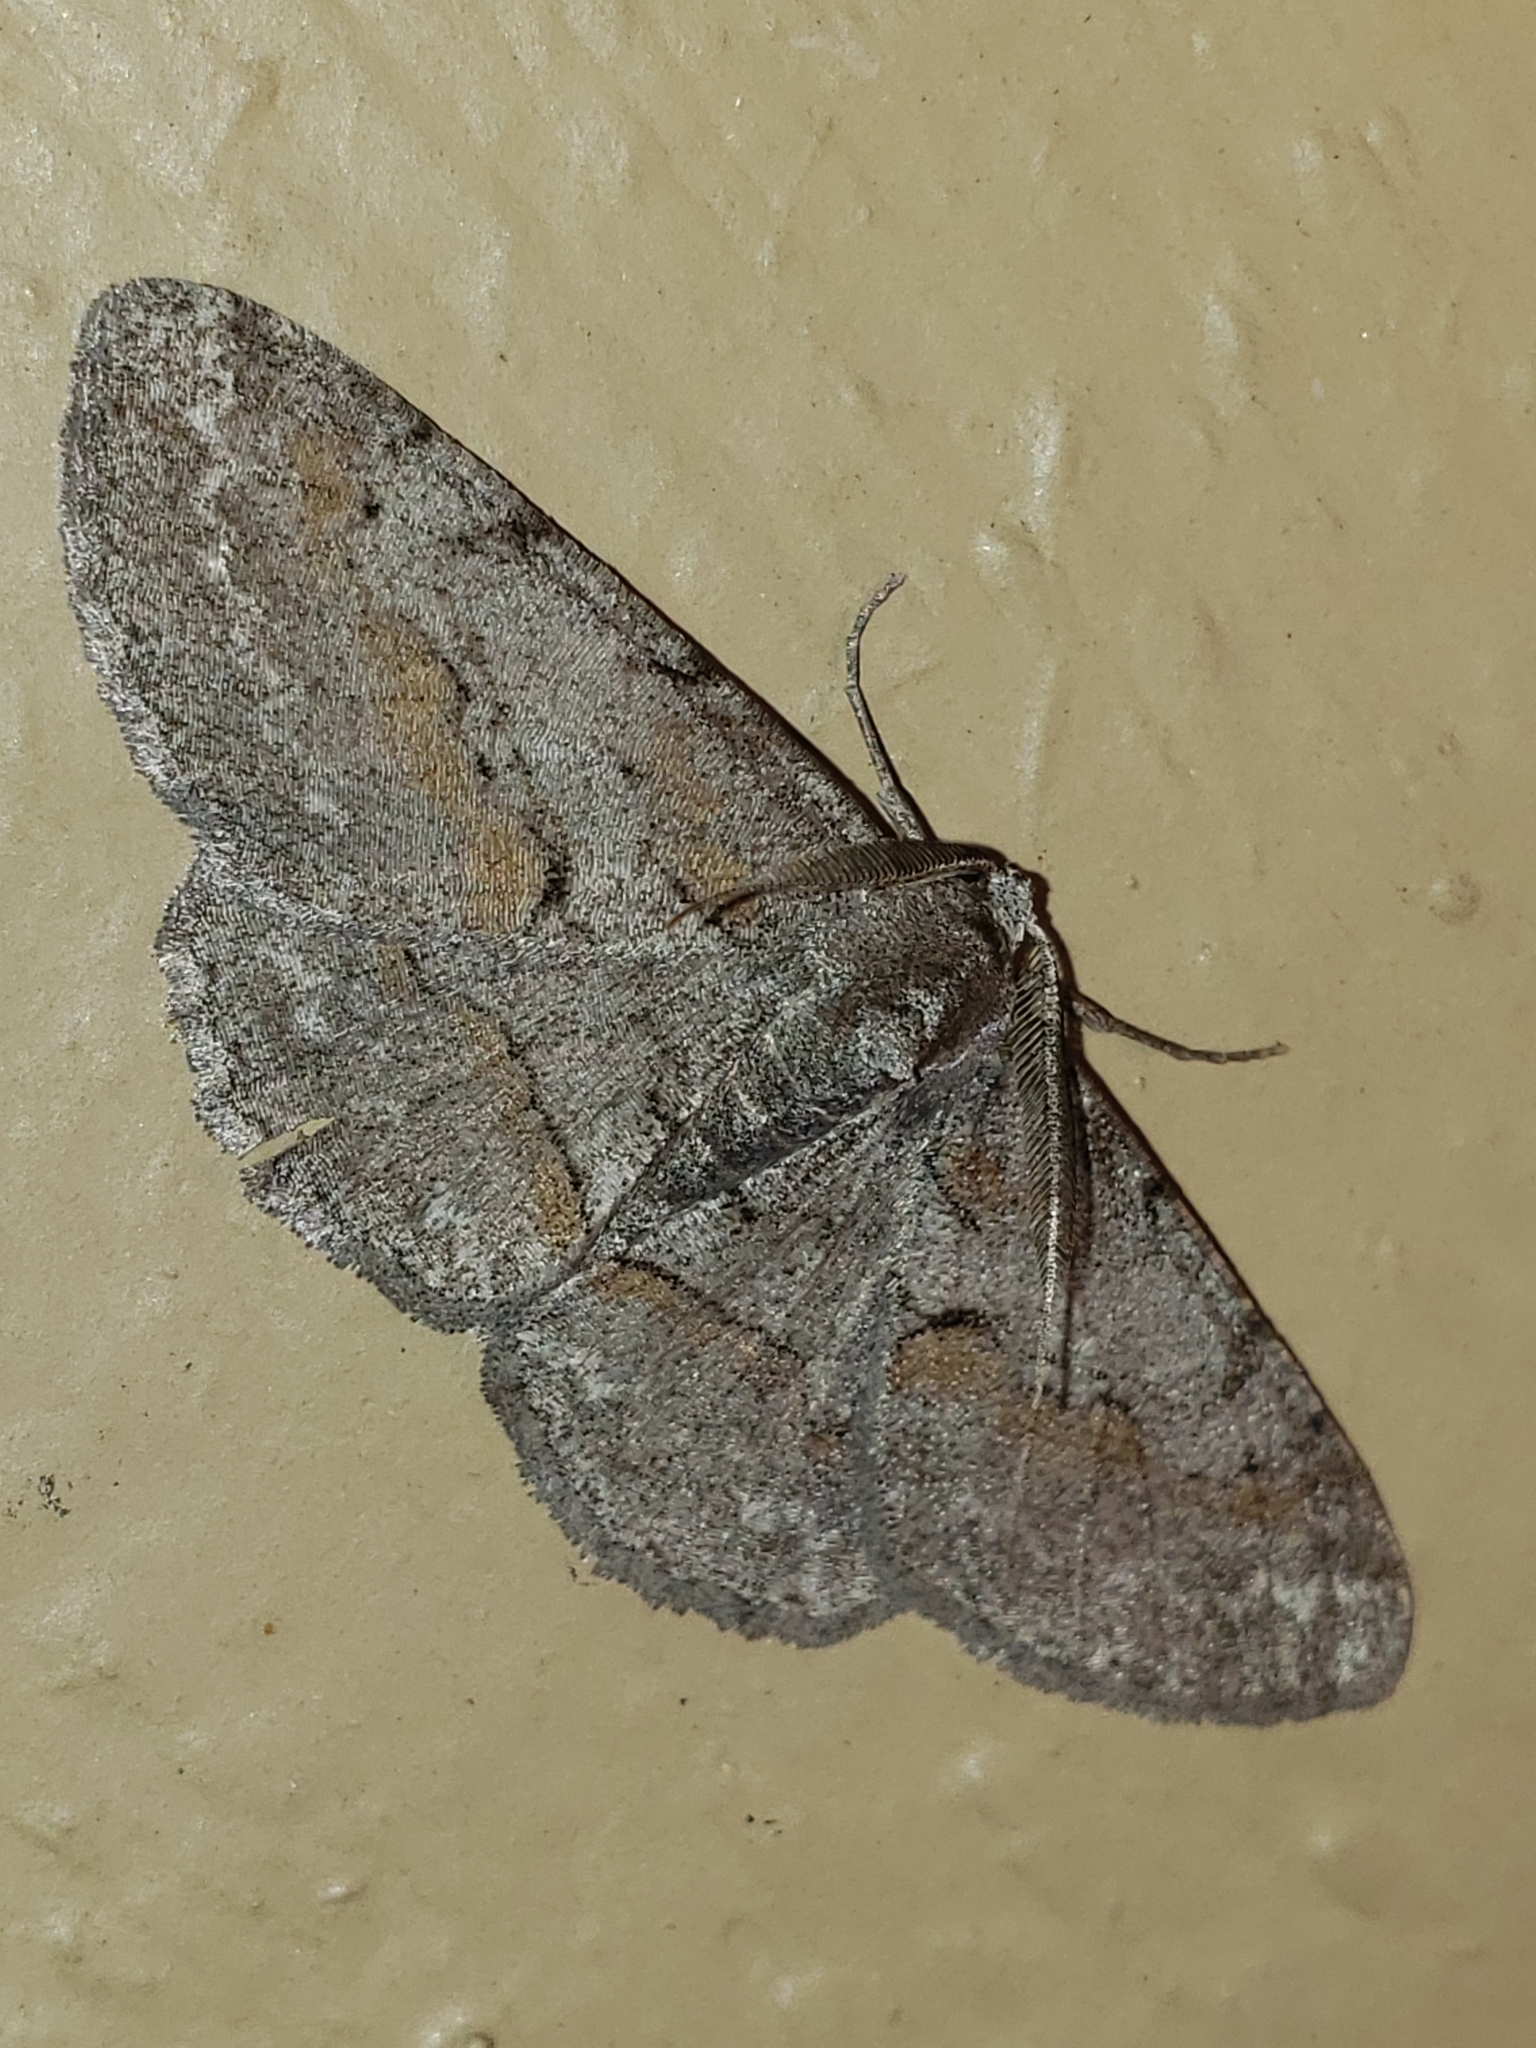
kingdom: Animalia
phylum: Arthropoda
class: Insecta
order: Lepidoptera
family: Geometridae
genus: Iridopsis
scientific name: Iridopsis vellivolata
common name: Large purplish gray
